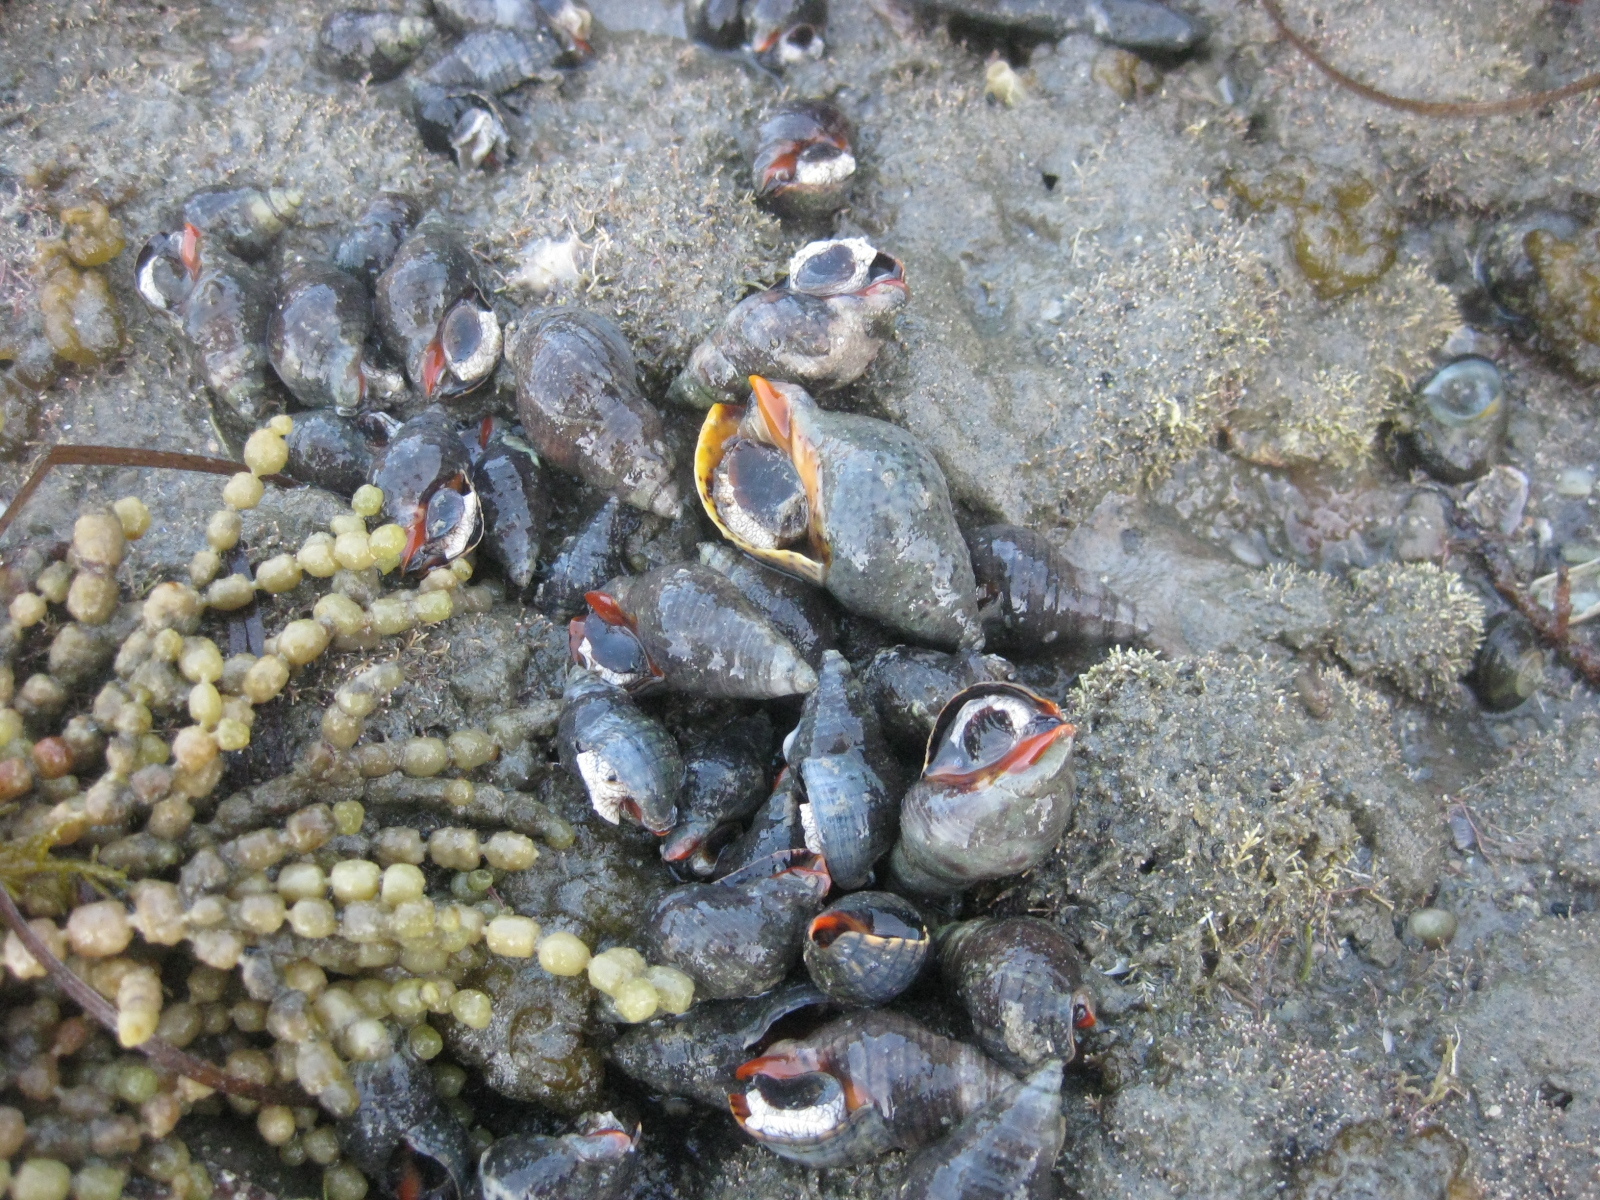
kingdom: Animalia
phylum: Mollusca
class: Gastropoda
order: Neogastropoda
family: Cominellidae
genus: Cominella
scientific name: Cominella virgata
